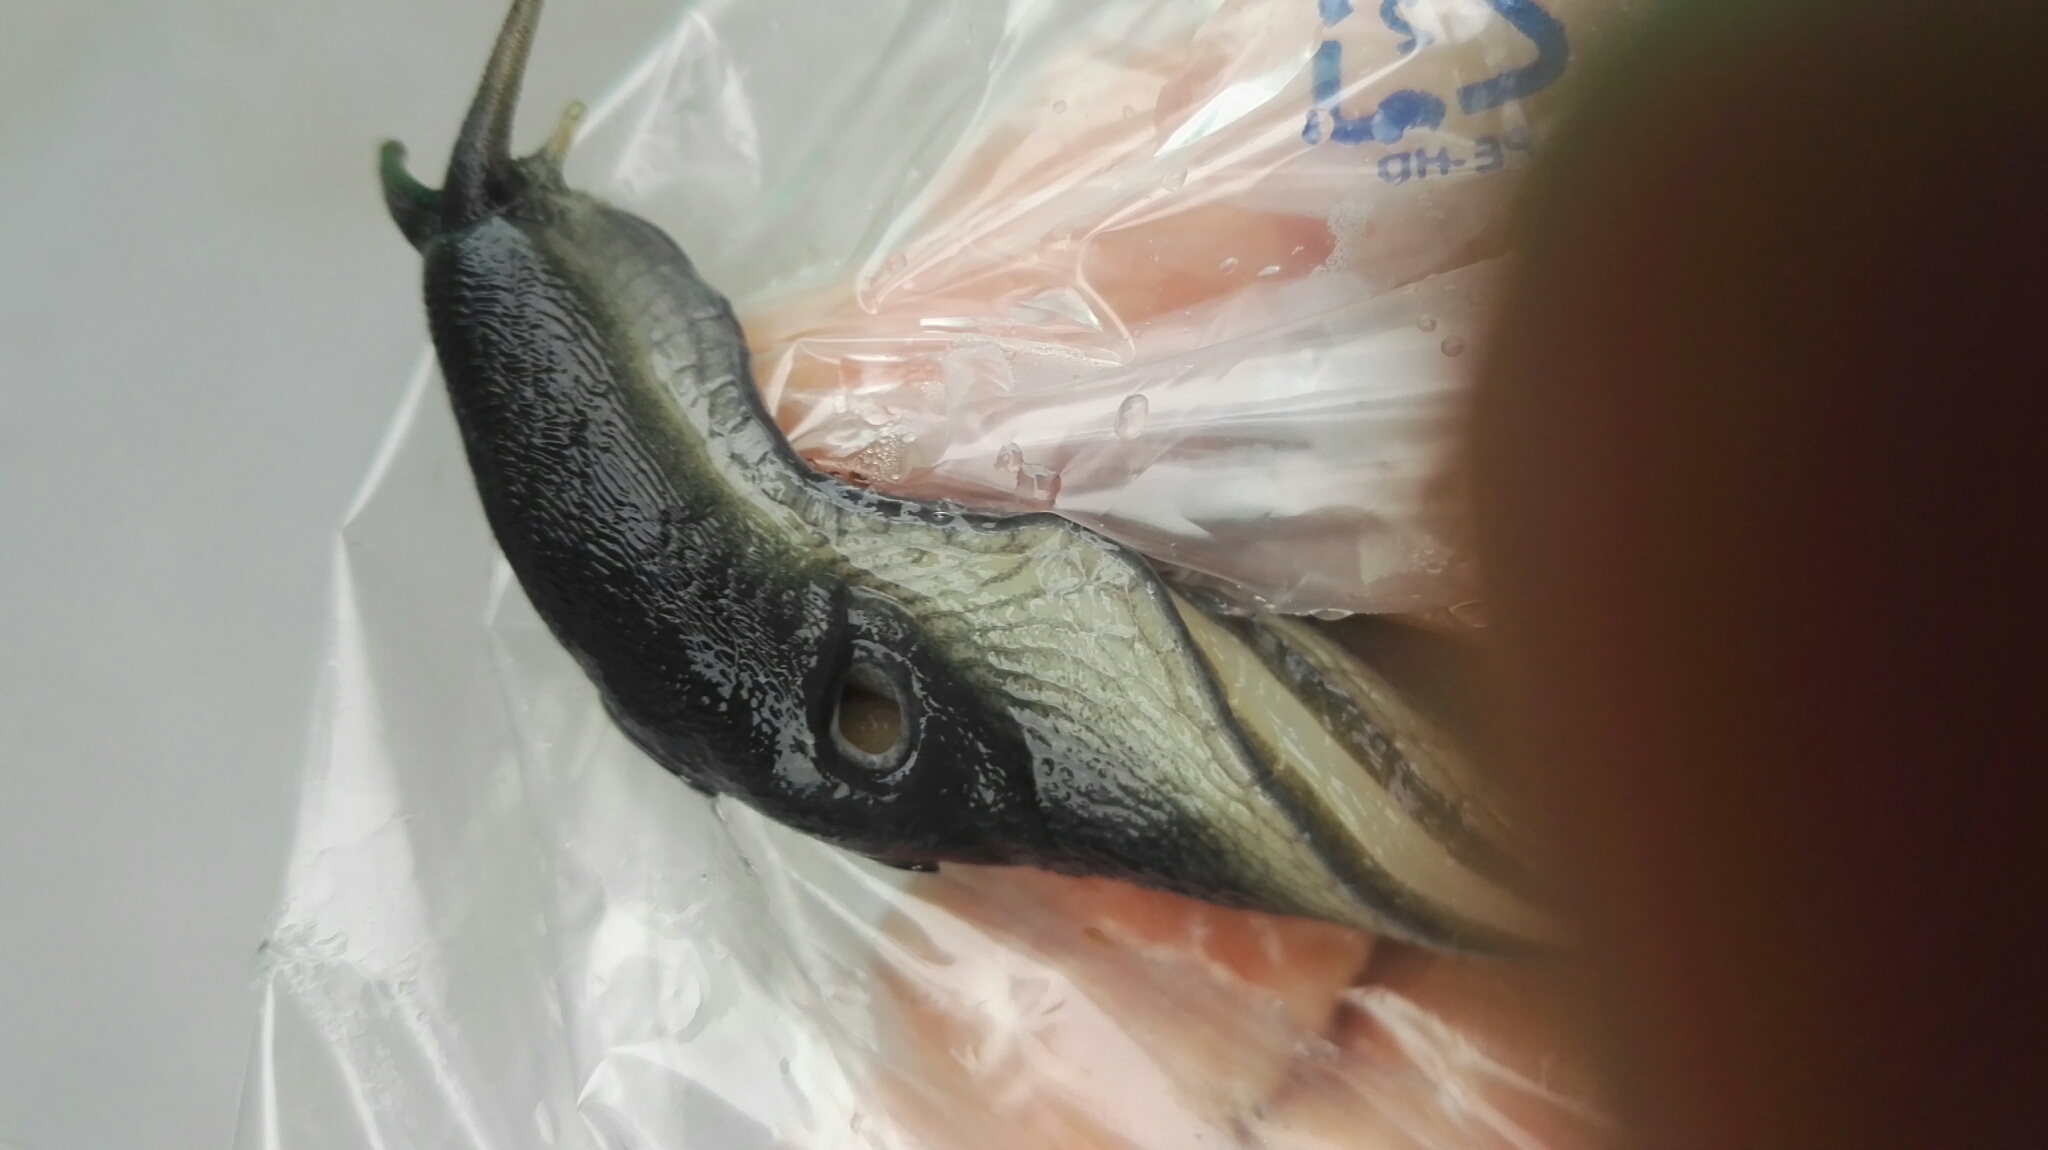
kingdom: Animalia
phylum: Mollusca
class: Gastropoda
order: Stylommatophora
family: Limacidae
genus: Limax
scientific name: Limax cinereoniger
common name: Ash-black slug
